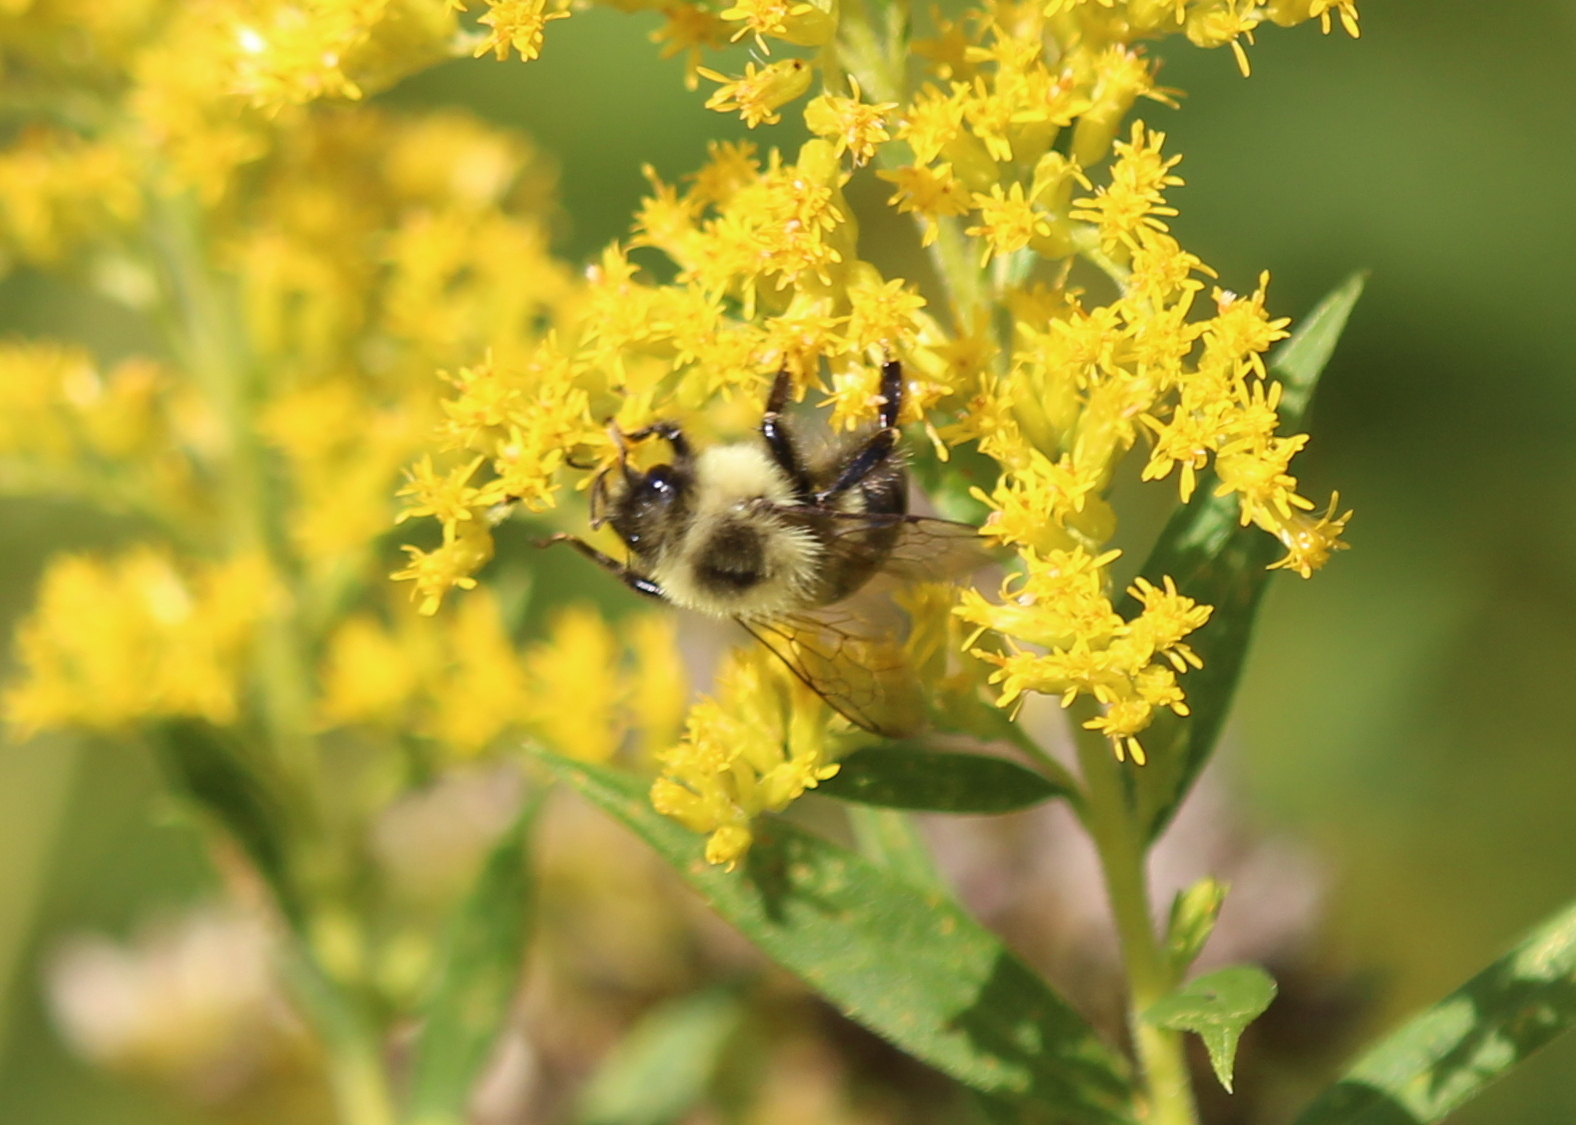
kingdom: Animalia
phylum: Arthropoda
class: Insecta
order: Hymenoptera
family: Apidae
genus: Bombus
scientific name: Bombus impatiens
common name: Common eastern bumble bee
